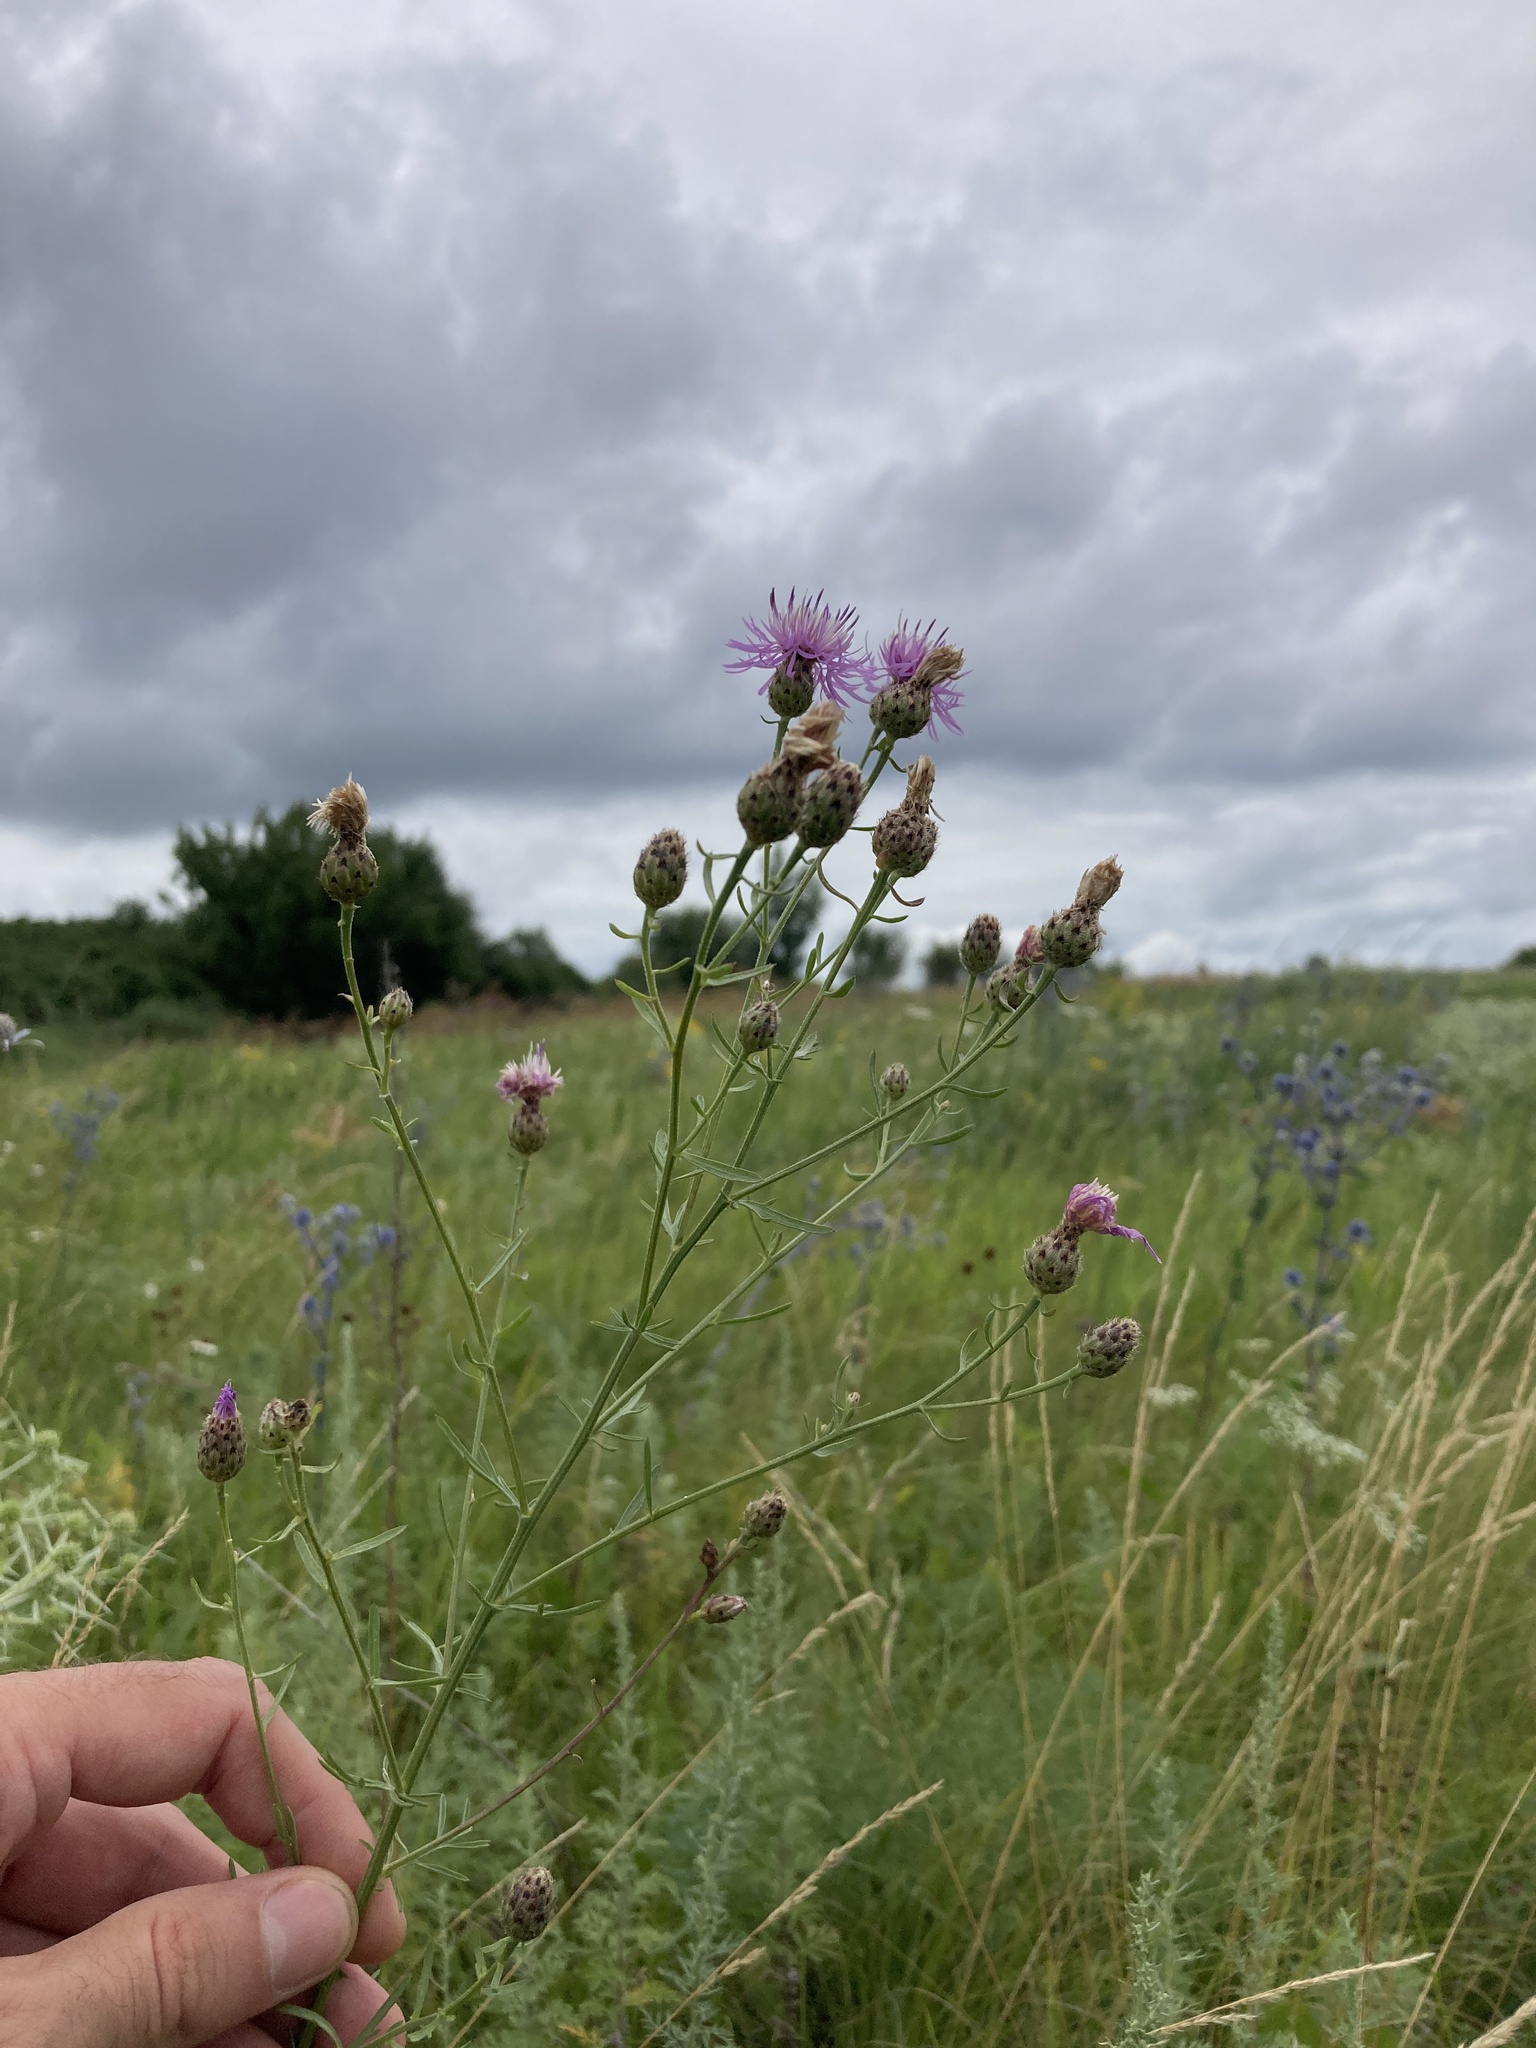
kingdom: Plantae
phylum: Tracheophyta
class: Magnoliopsida
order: Asterales
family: Asteraceae
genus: Centaurea
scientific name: Centaurea stoebe
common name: Spotted knapweed
